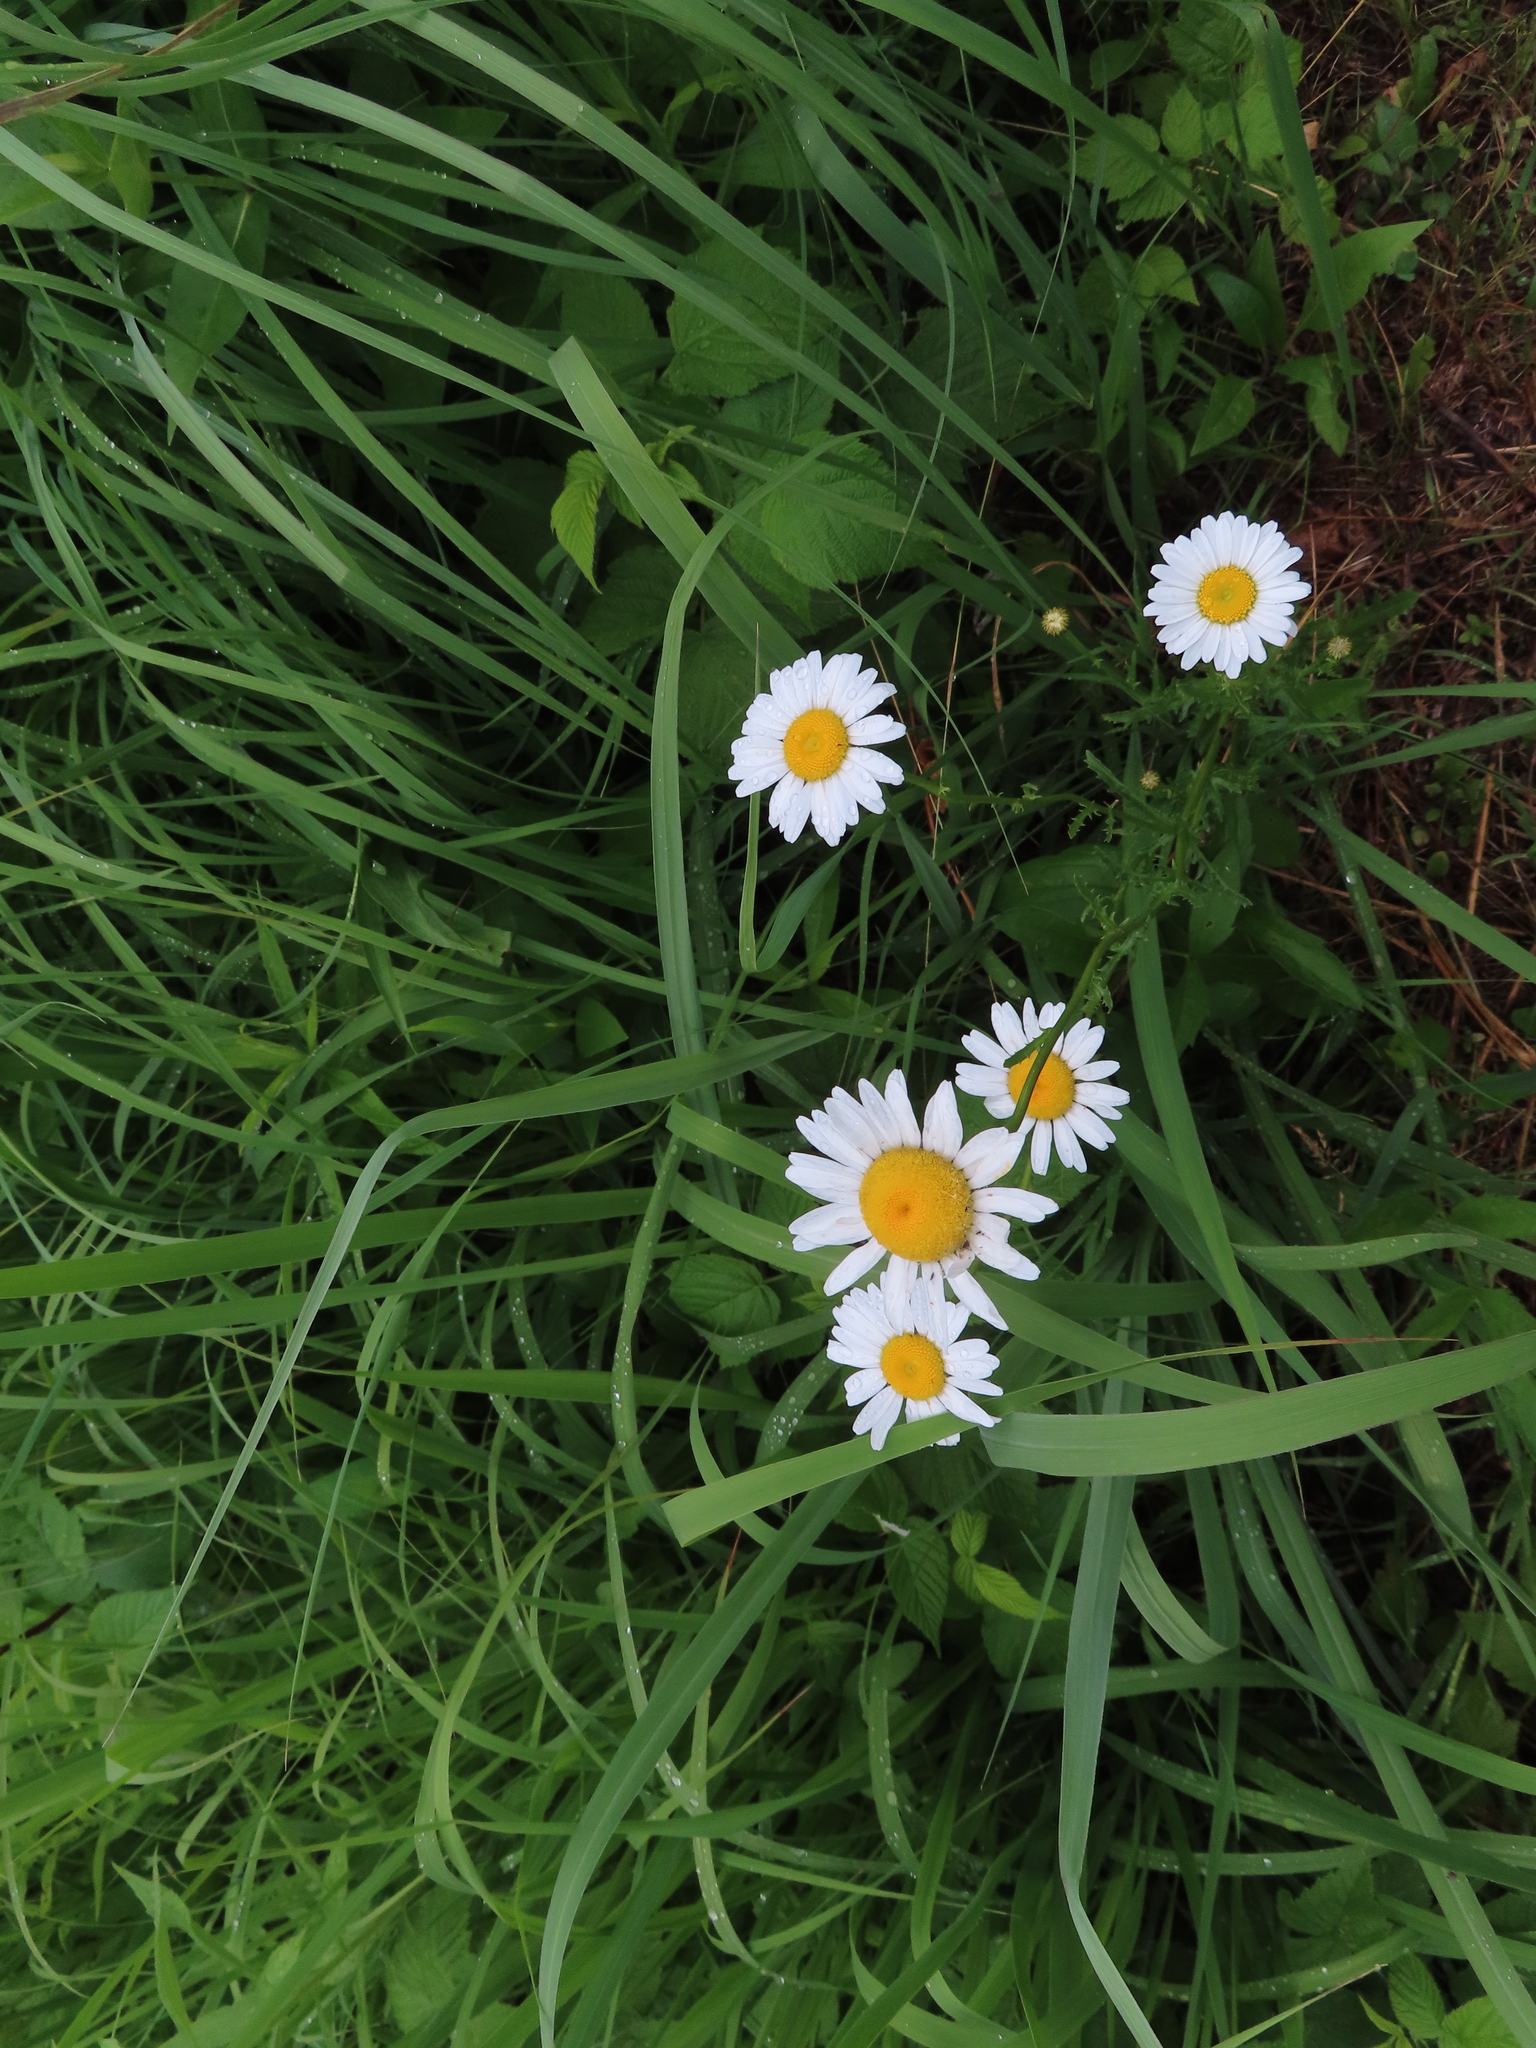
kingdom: Plantae
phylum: Tracheophyta
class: Magnoliopsida
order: Asterales
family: Asteraceae
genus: Leucanthemum
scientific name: Leucanthemum vulgare
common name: Oxeye daisy
